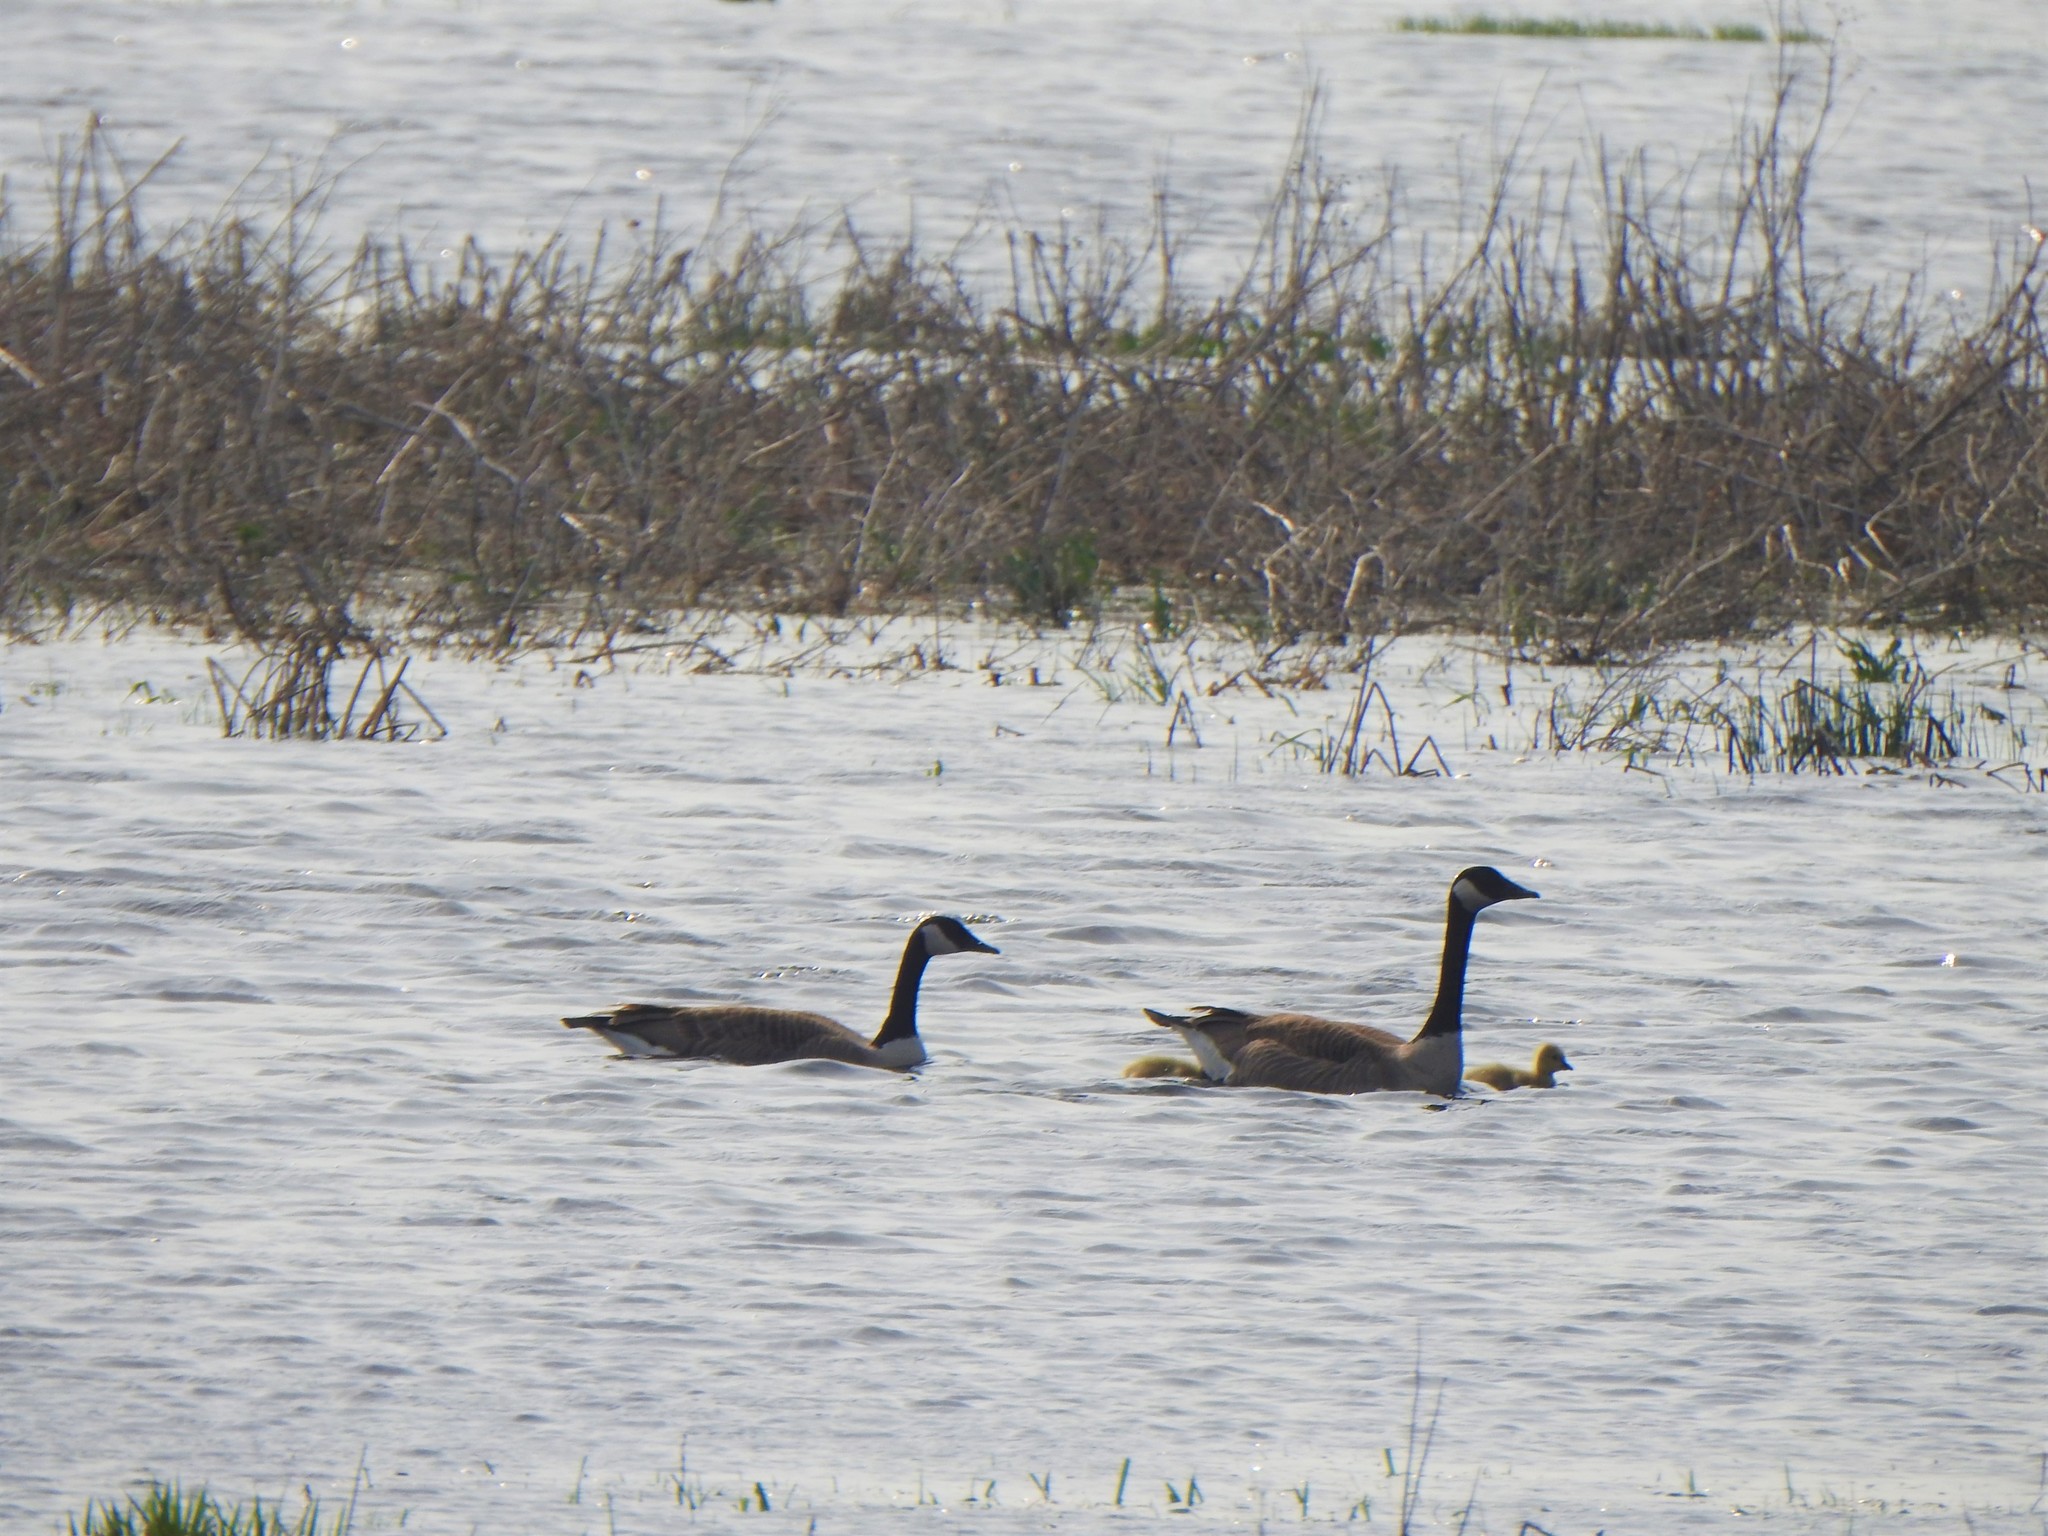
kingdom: Animalia
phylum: Chordata
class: Aves
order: Anseriformes
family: Anatidae
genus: Branta
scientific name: Branta canadensis
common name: Canada goose
